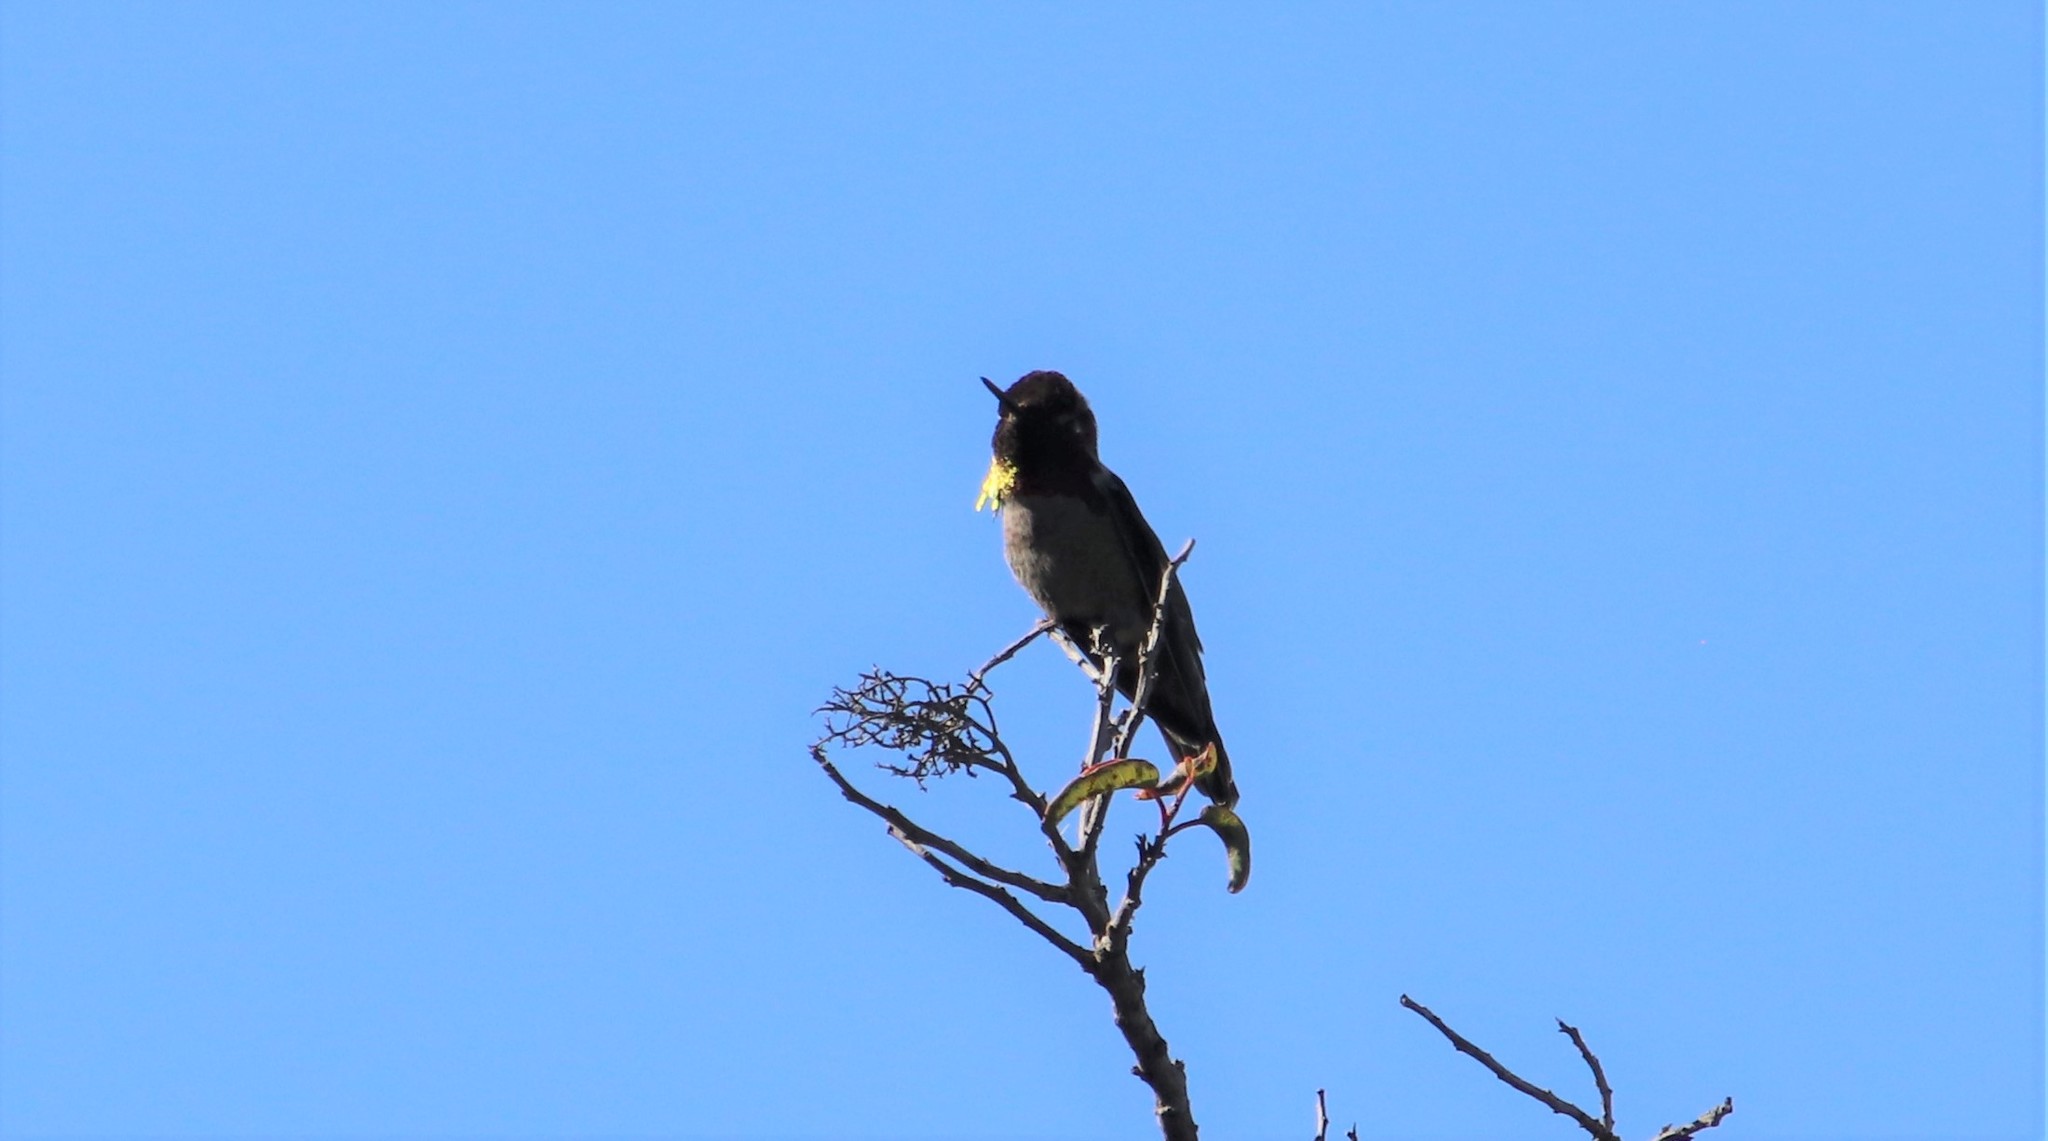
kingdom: Animalia
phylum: Chordata
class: Aves
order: Apodiformes
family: Trochilidae
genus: Calypte
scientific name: Calypte anna
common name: Anna's hummingbird
